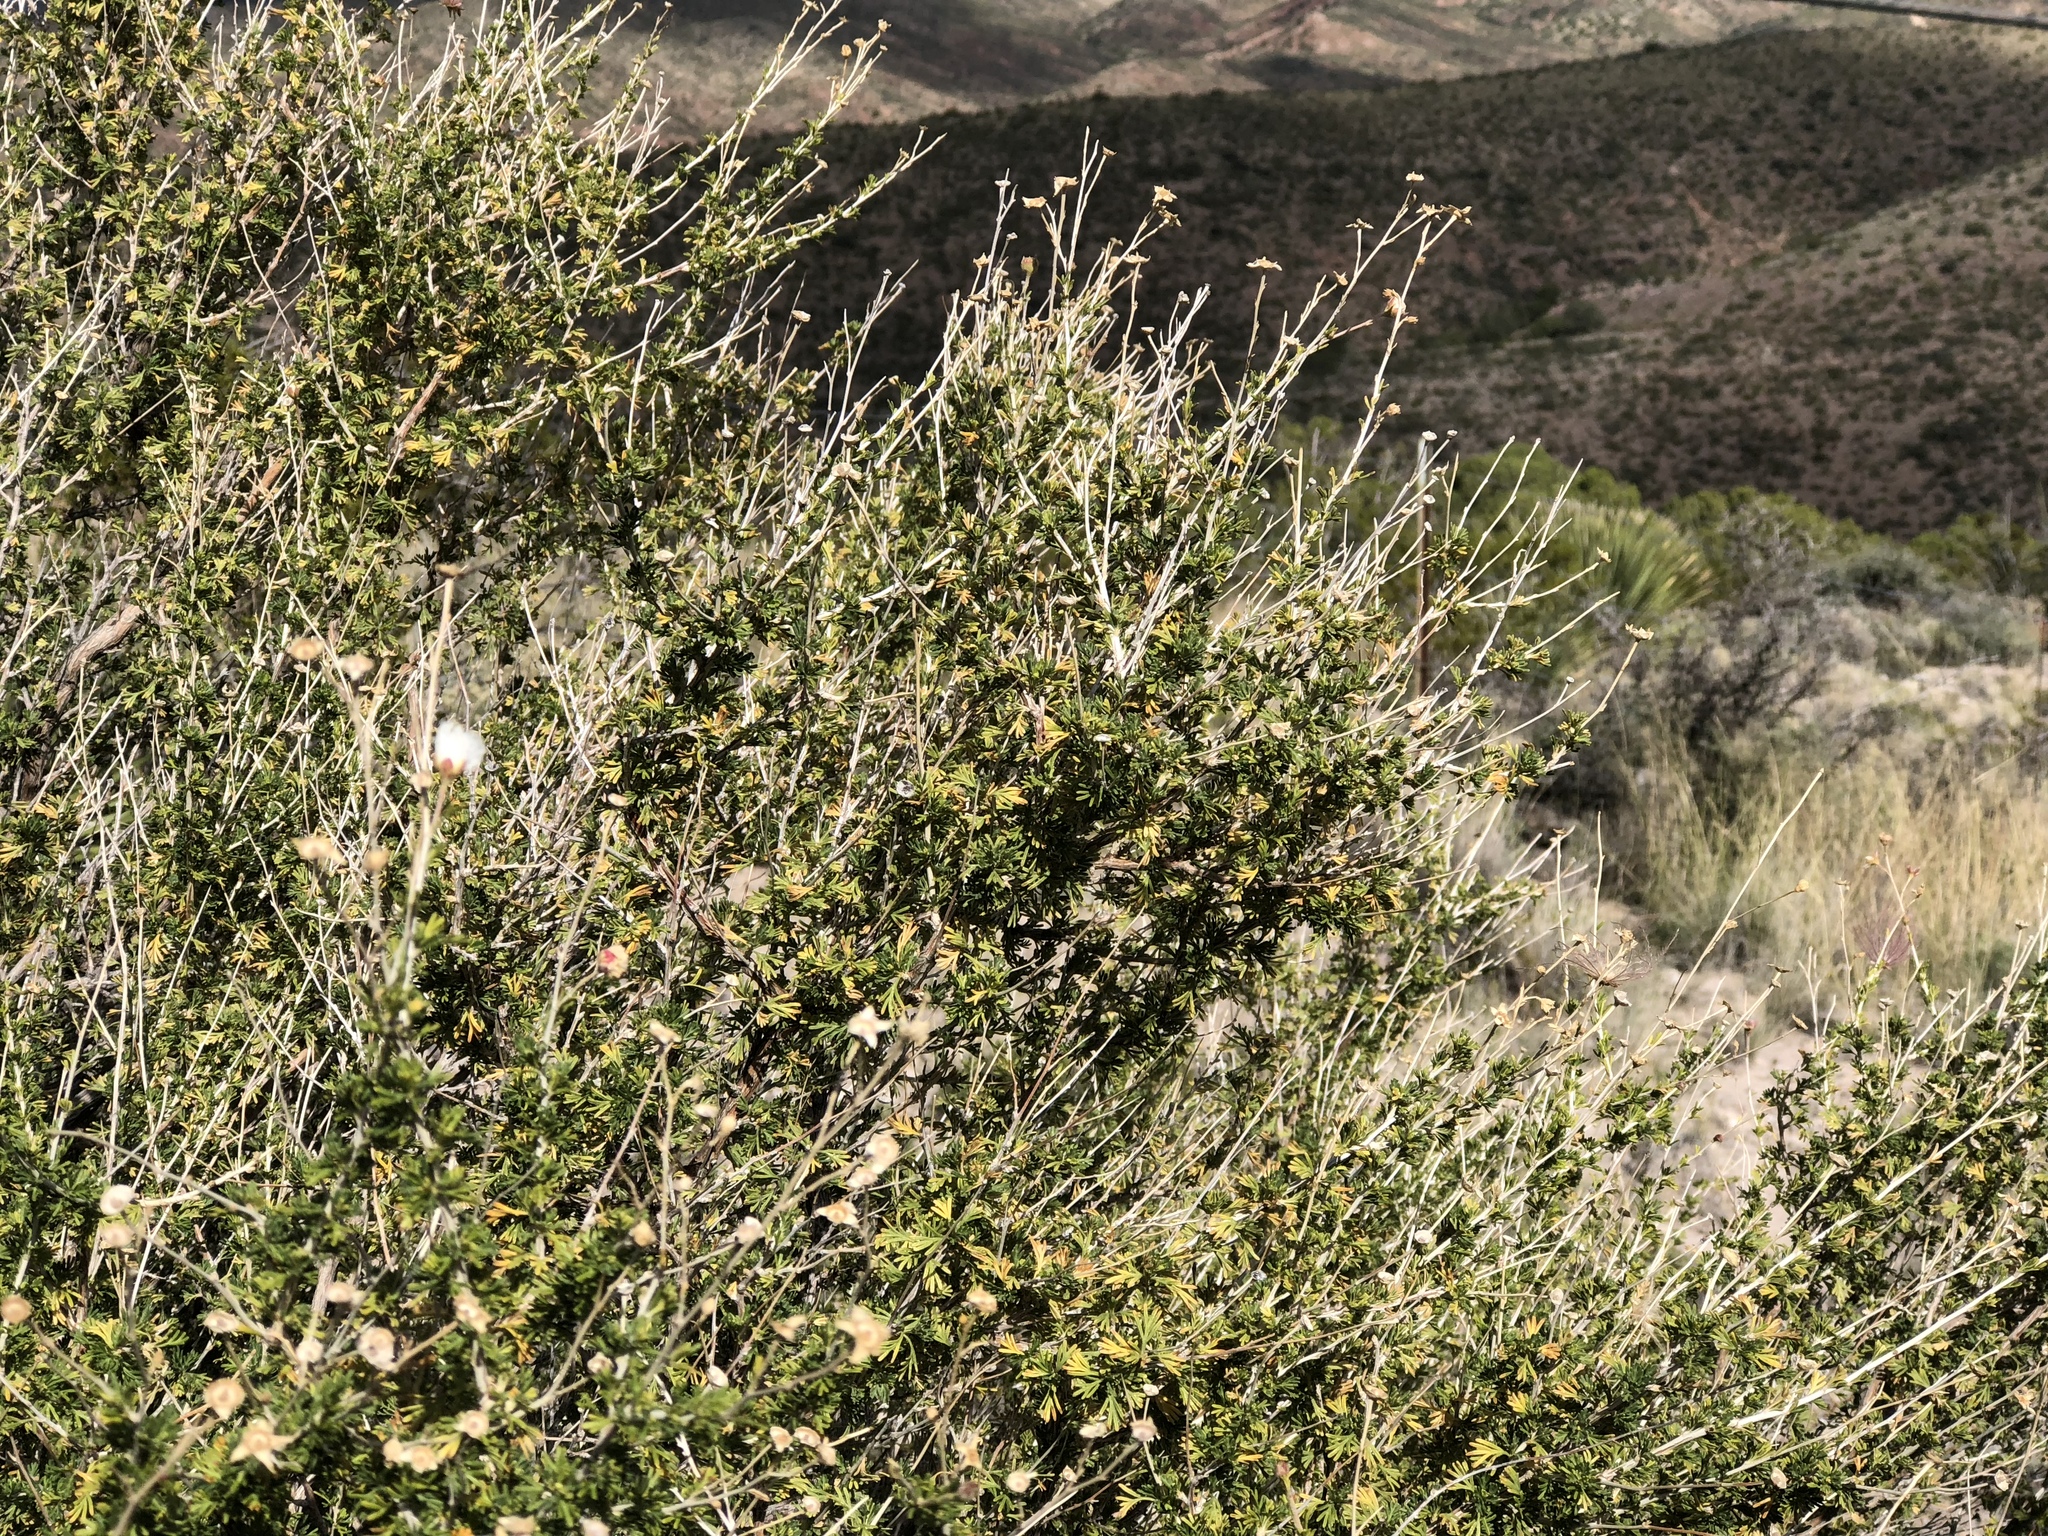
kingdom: Plantae
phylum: Tracheophyta
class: Magnoliopsida
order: Rosales
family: Rosaceae
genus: Fallugia
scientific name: Fallugia paradoxa
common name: Apache-plume
